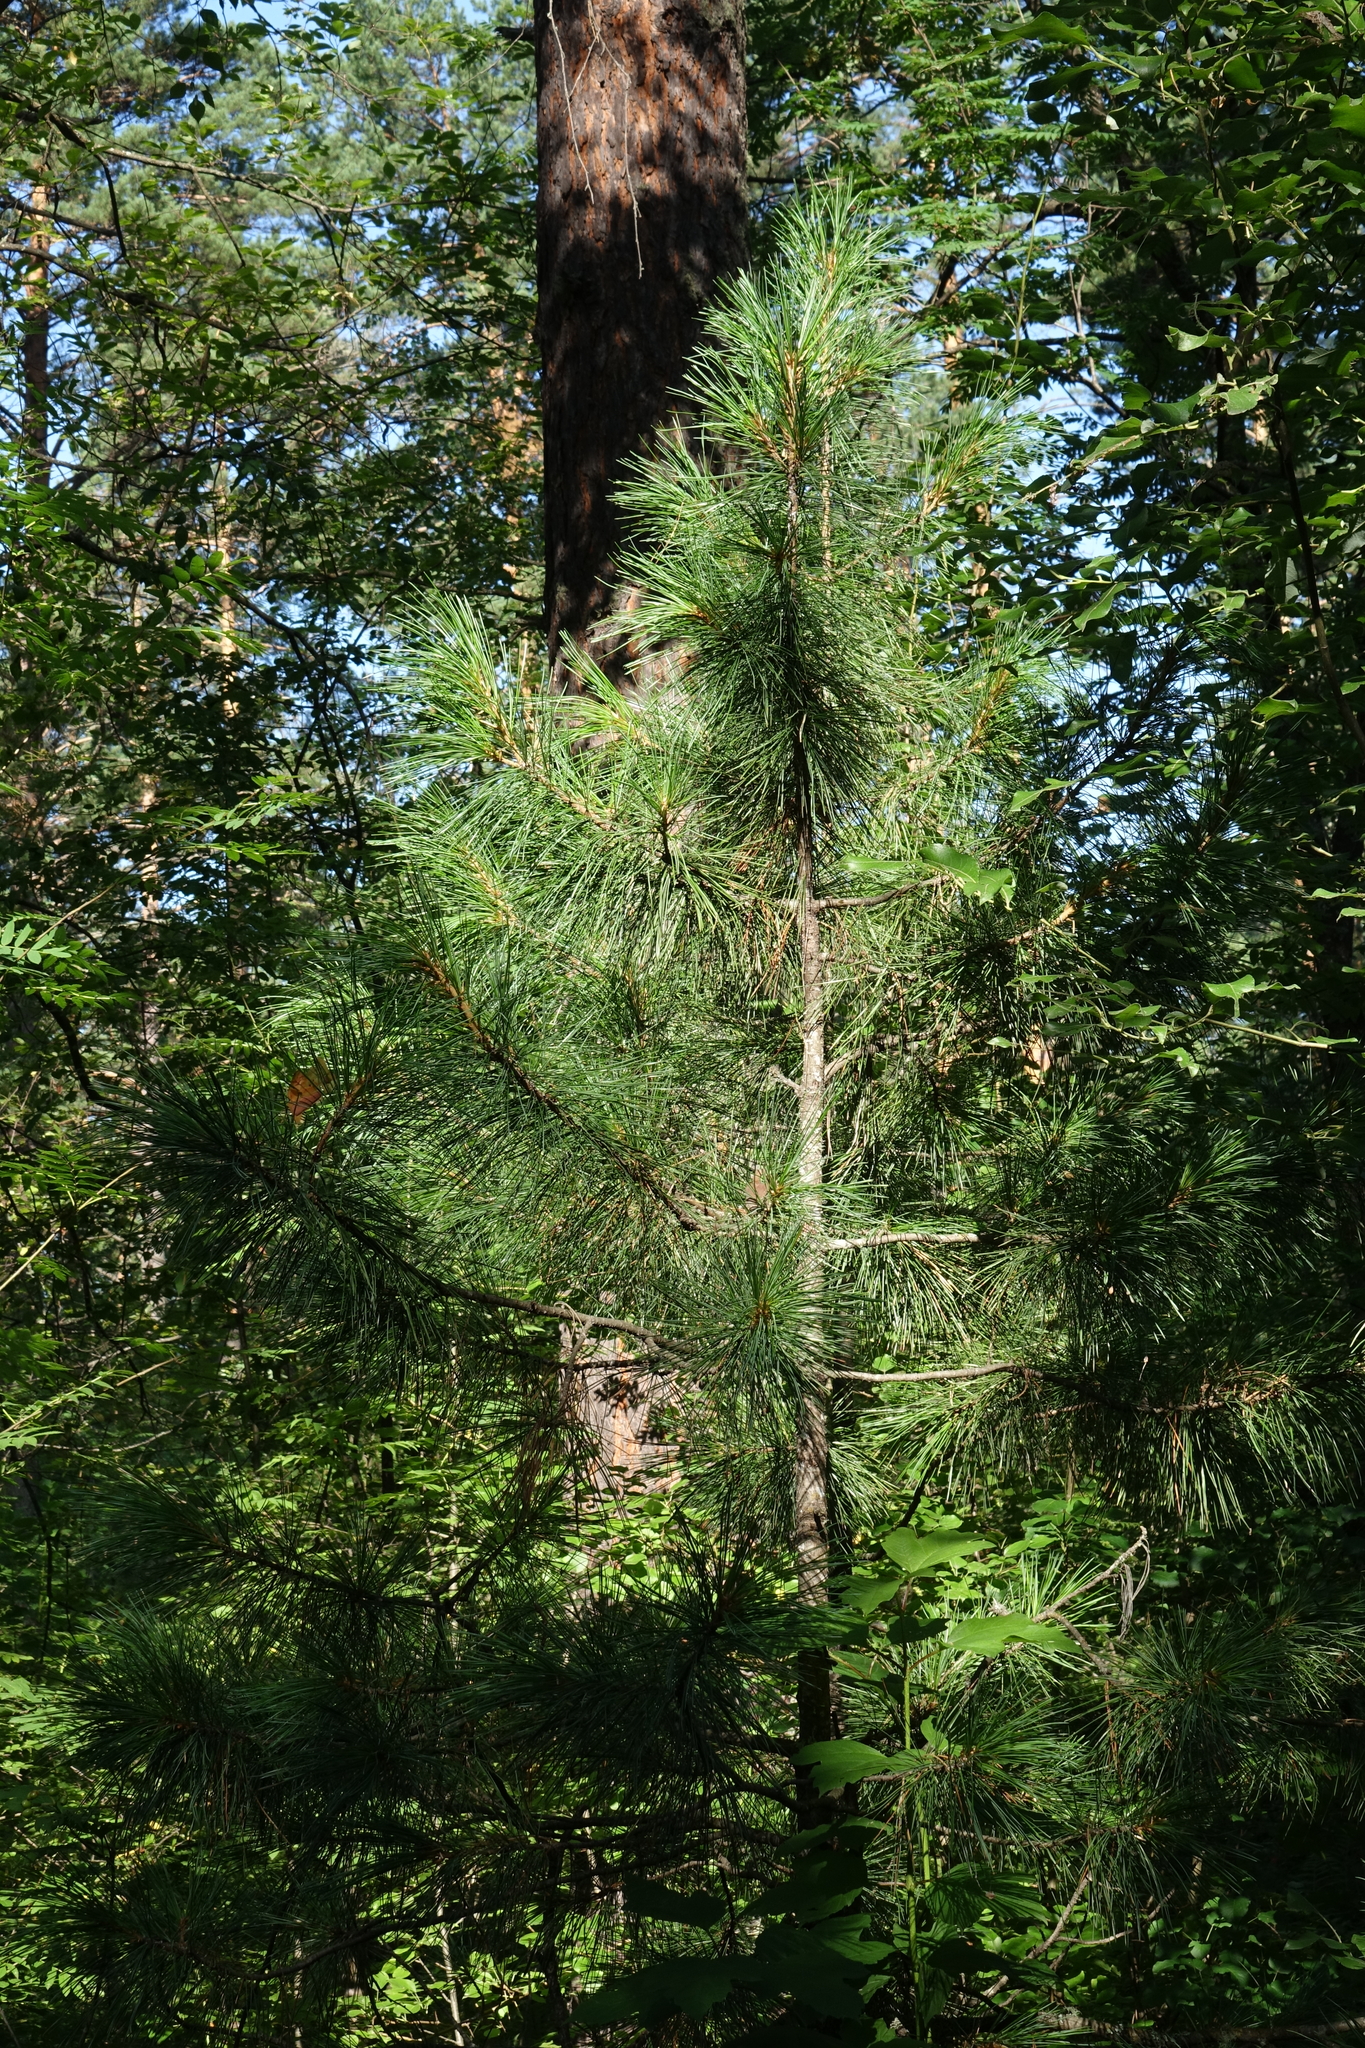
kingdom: Plantae
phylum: Tracheophyta
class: Pinopsida
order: Pinales
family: Pinaceae
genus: Pinus
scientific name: Pinus sibirica
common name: Siberian pine
